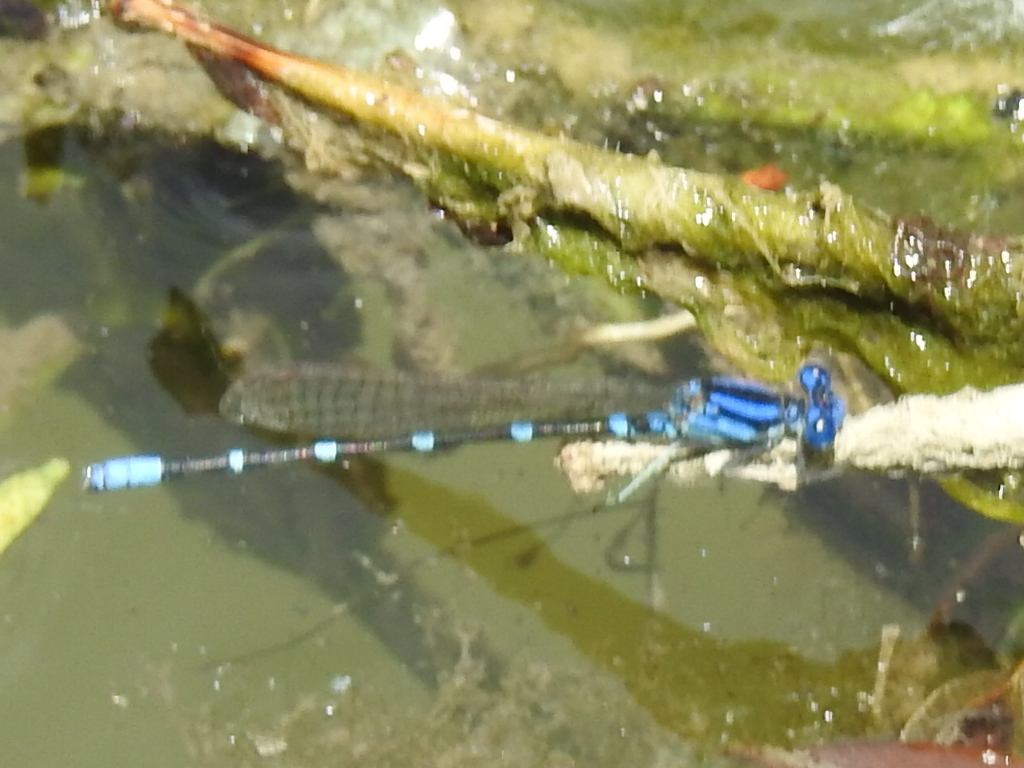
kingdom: Animalia
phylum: Arthropoda
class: Insecta
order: Odonata
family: Coenagrionidae
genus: Argia
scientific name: Argia sedula
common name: Blue-ringed dancer
